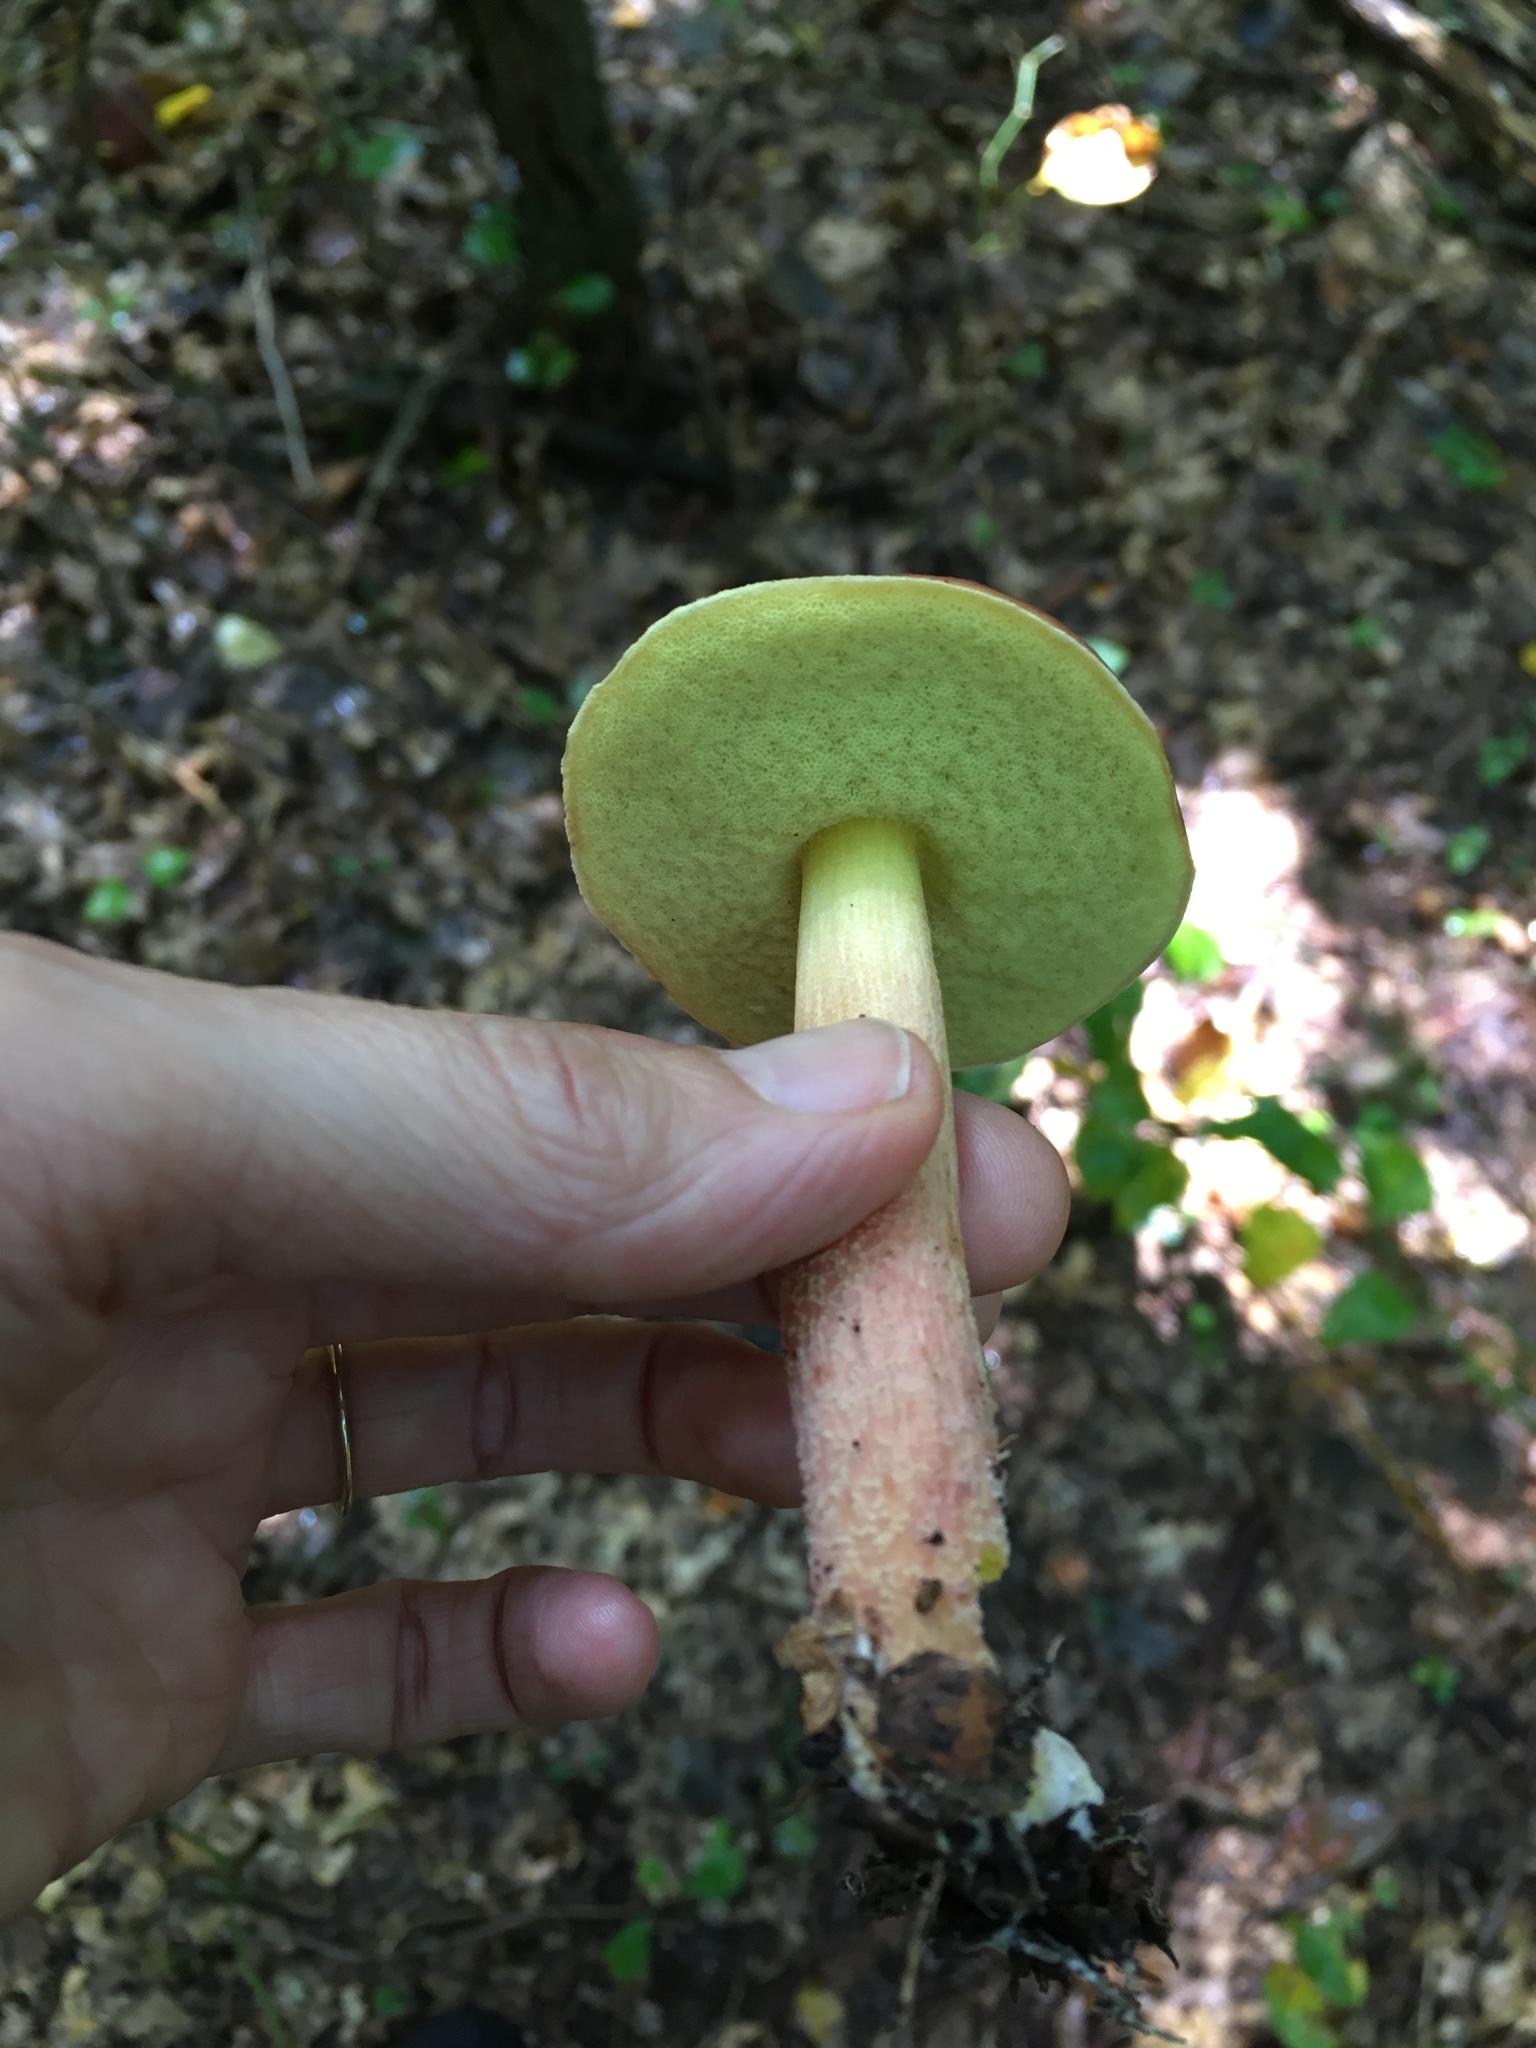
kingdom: Fungi
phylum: Basidiomycota
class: Agaricomycetes
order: Boletales
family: Boletaceae
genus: Hemileccinum
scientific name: Hemileccinum rubropunctum
